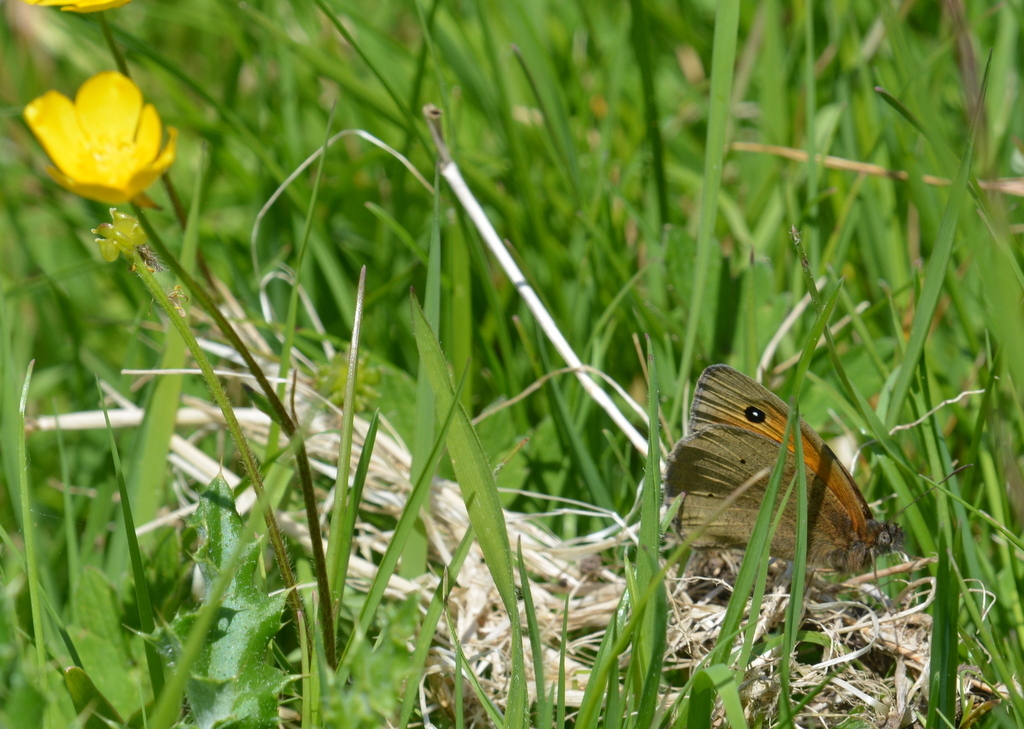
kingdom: Animalia
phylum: Arthropoda
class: Insecta
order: Lepidoptera
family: Nymphalidae
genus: Maniola
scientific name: Maniola jurtina
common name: Meadow brown
